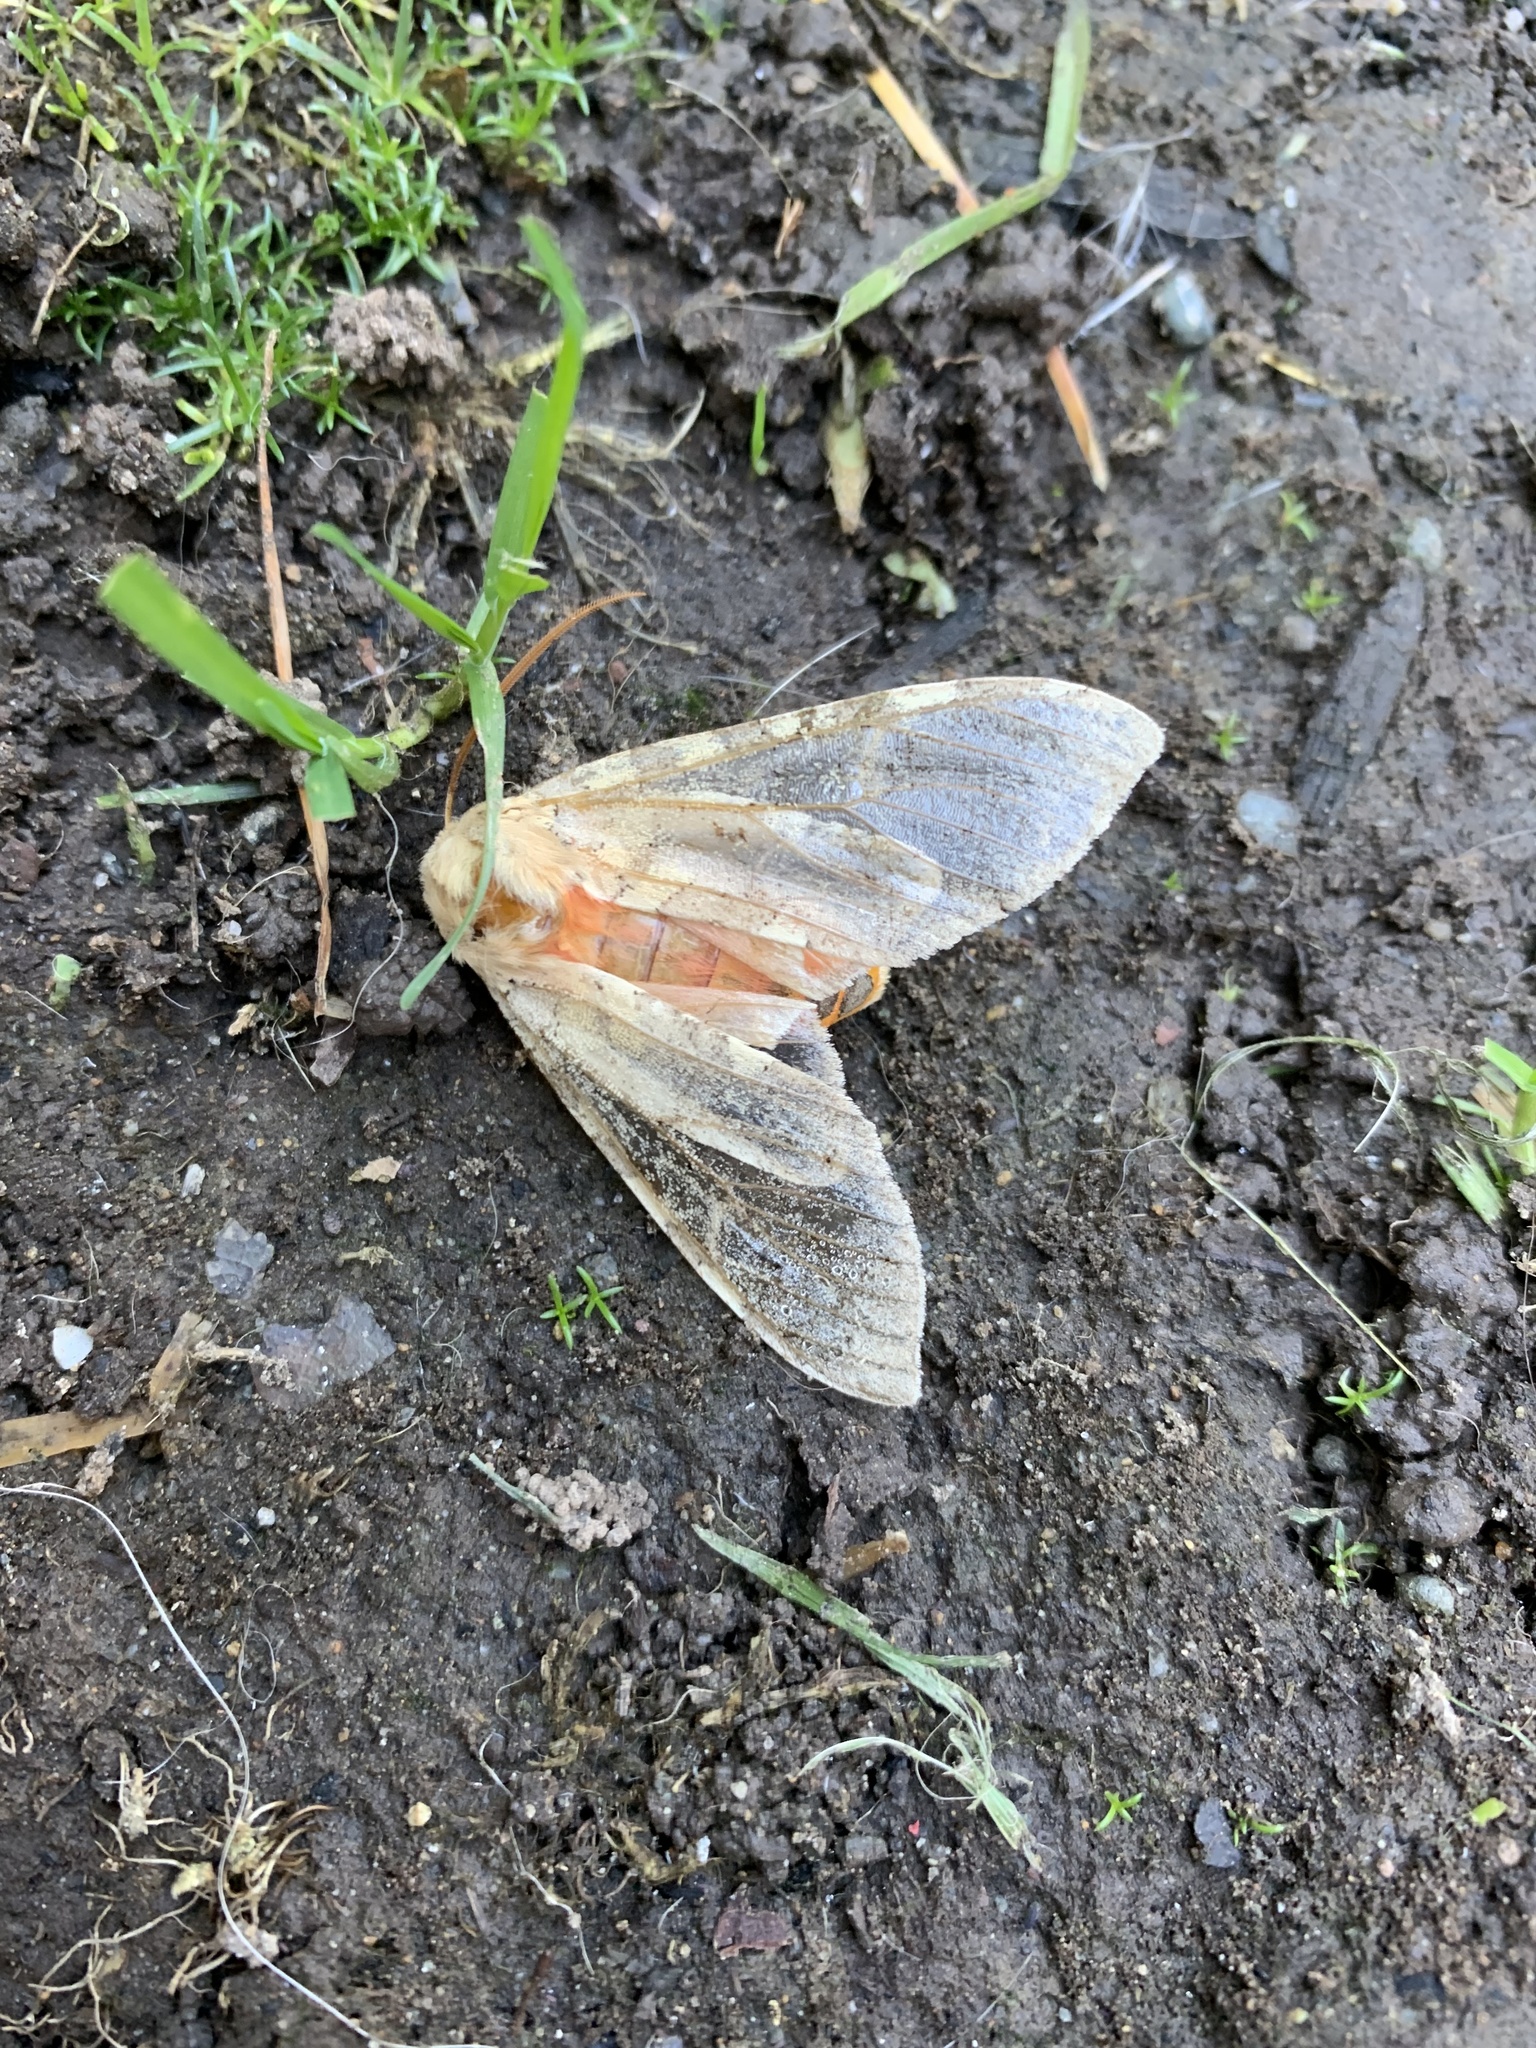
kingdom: Animalia
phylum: Arthropoda
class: Insecta
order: Lepidoptera
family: Erebidae
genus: Hemihyalea
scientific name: Hemihyalea edwardsii
